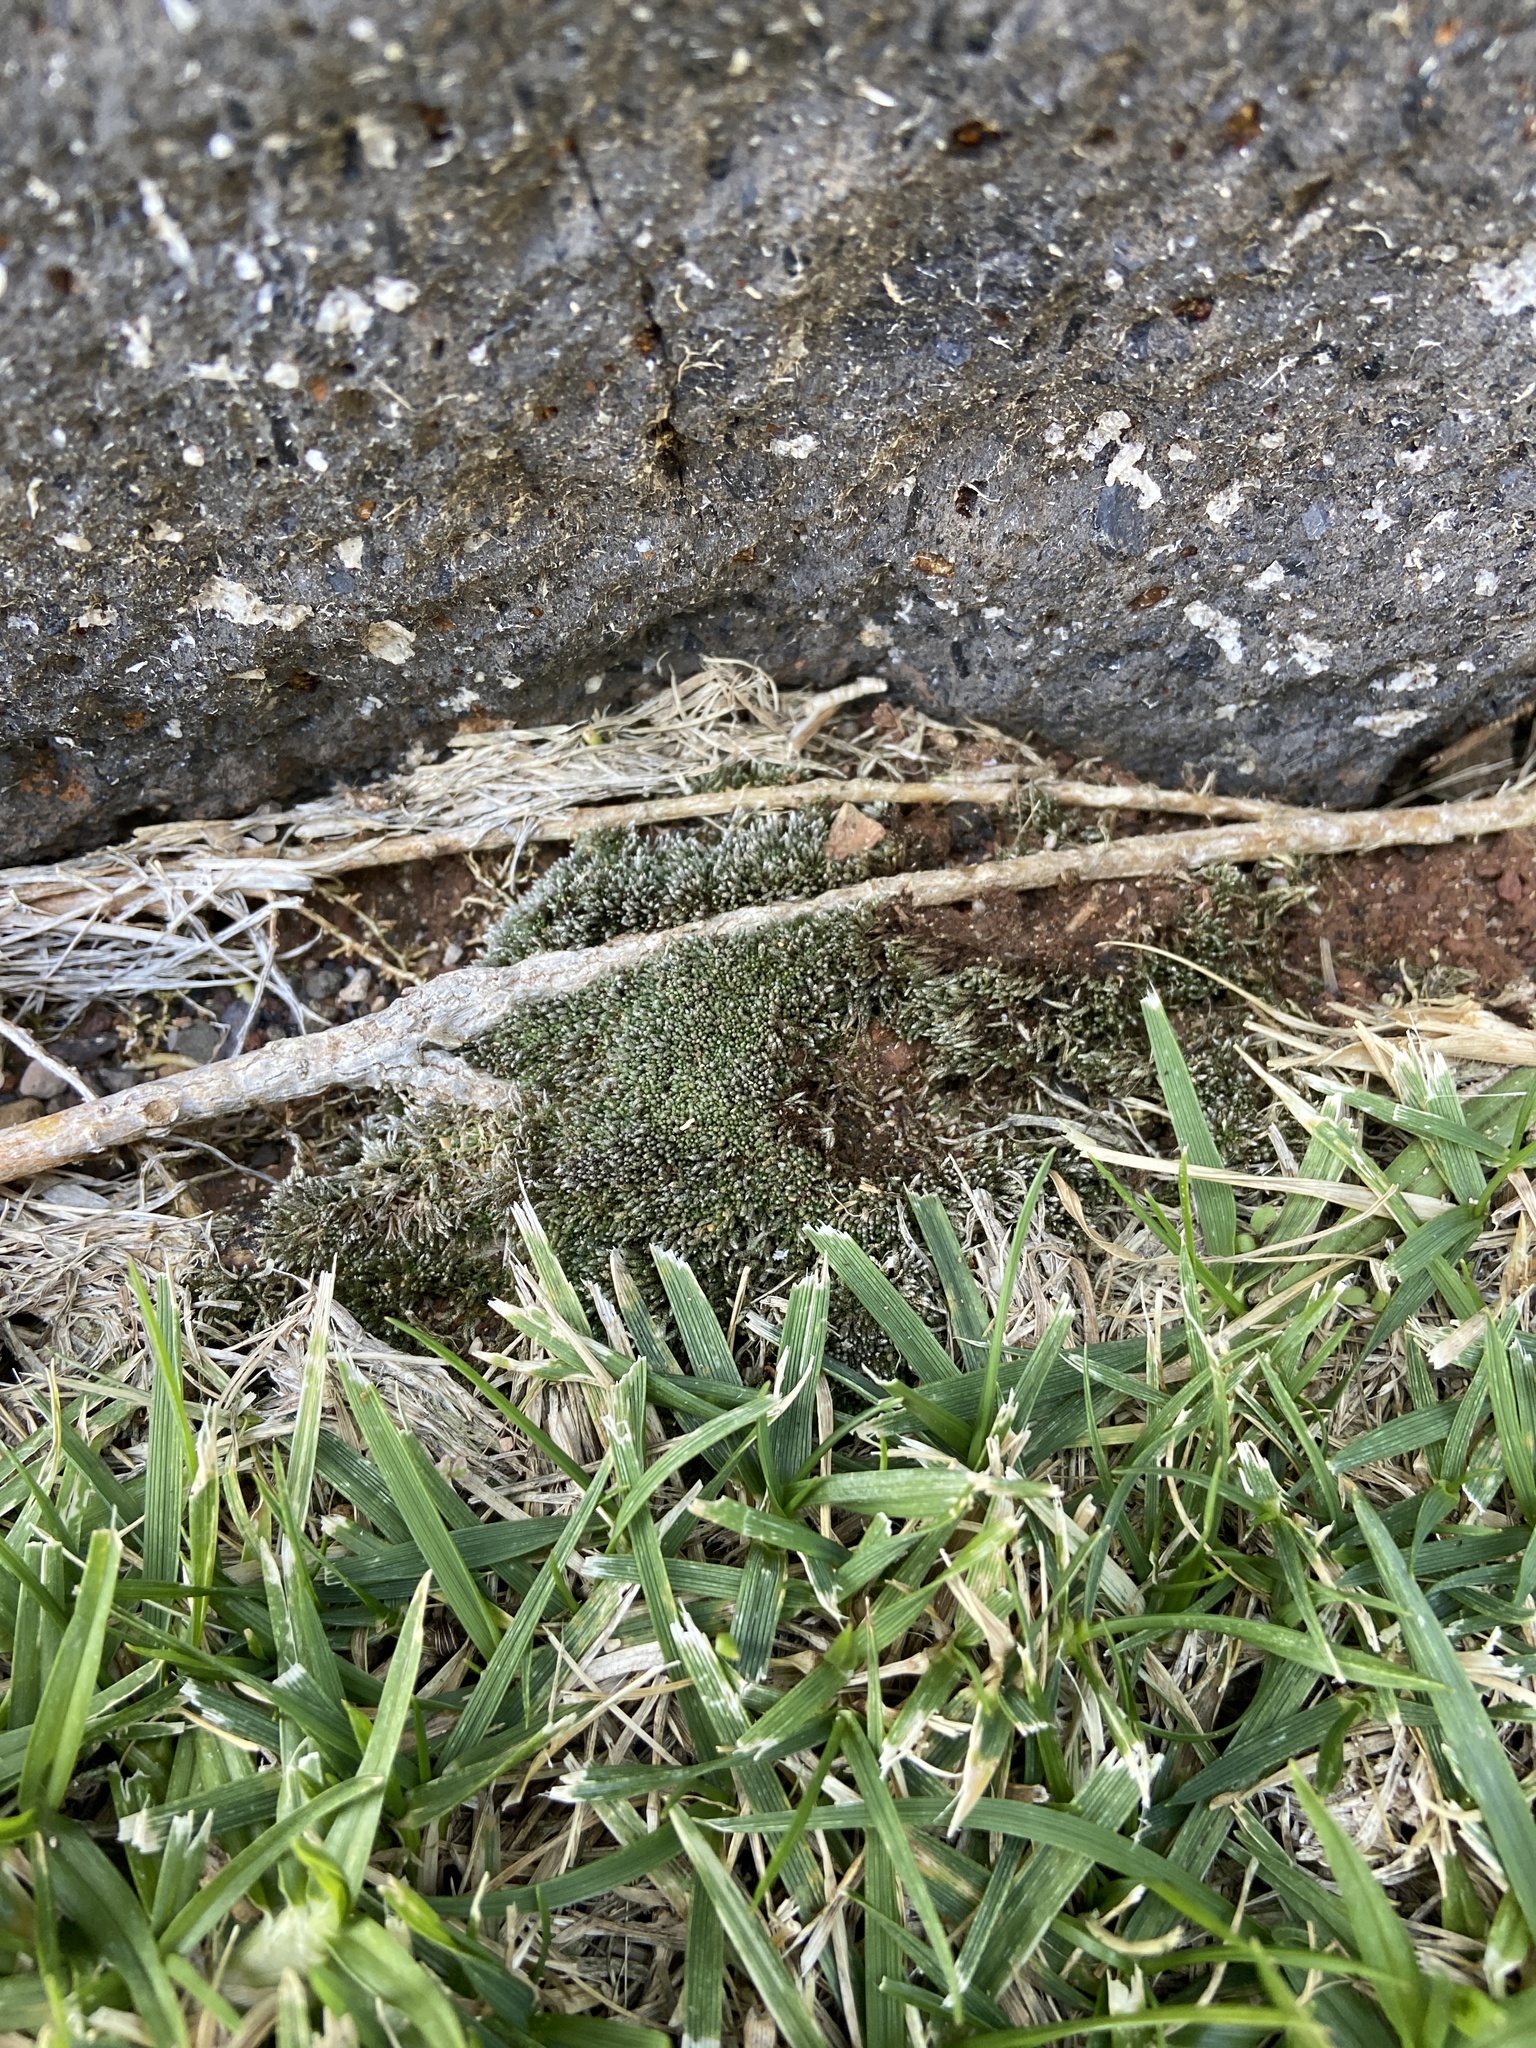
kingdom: Plantae
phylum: Bryophyta
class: Bryopsida
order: Bryales
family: Bryaceae
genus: Bryum
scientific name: Bryum argenteum
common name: Silver-moss
